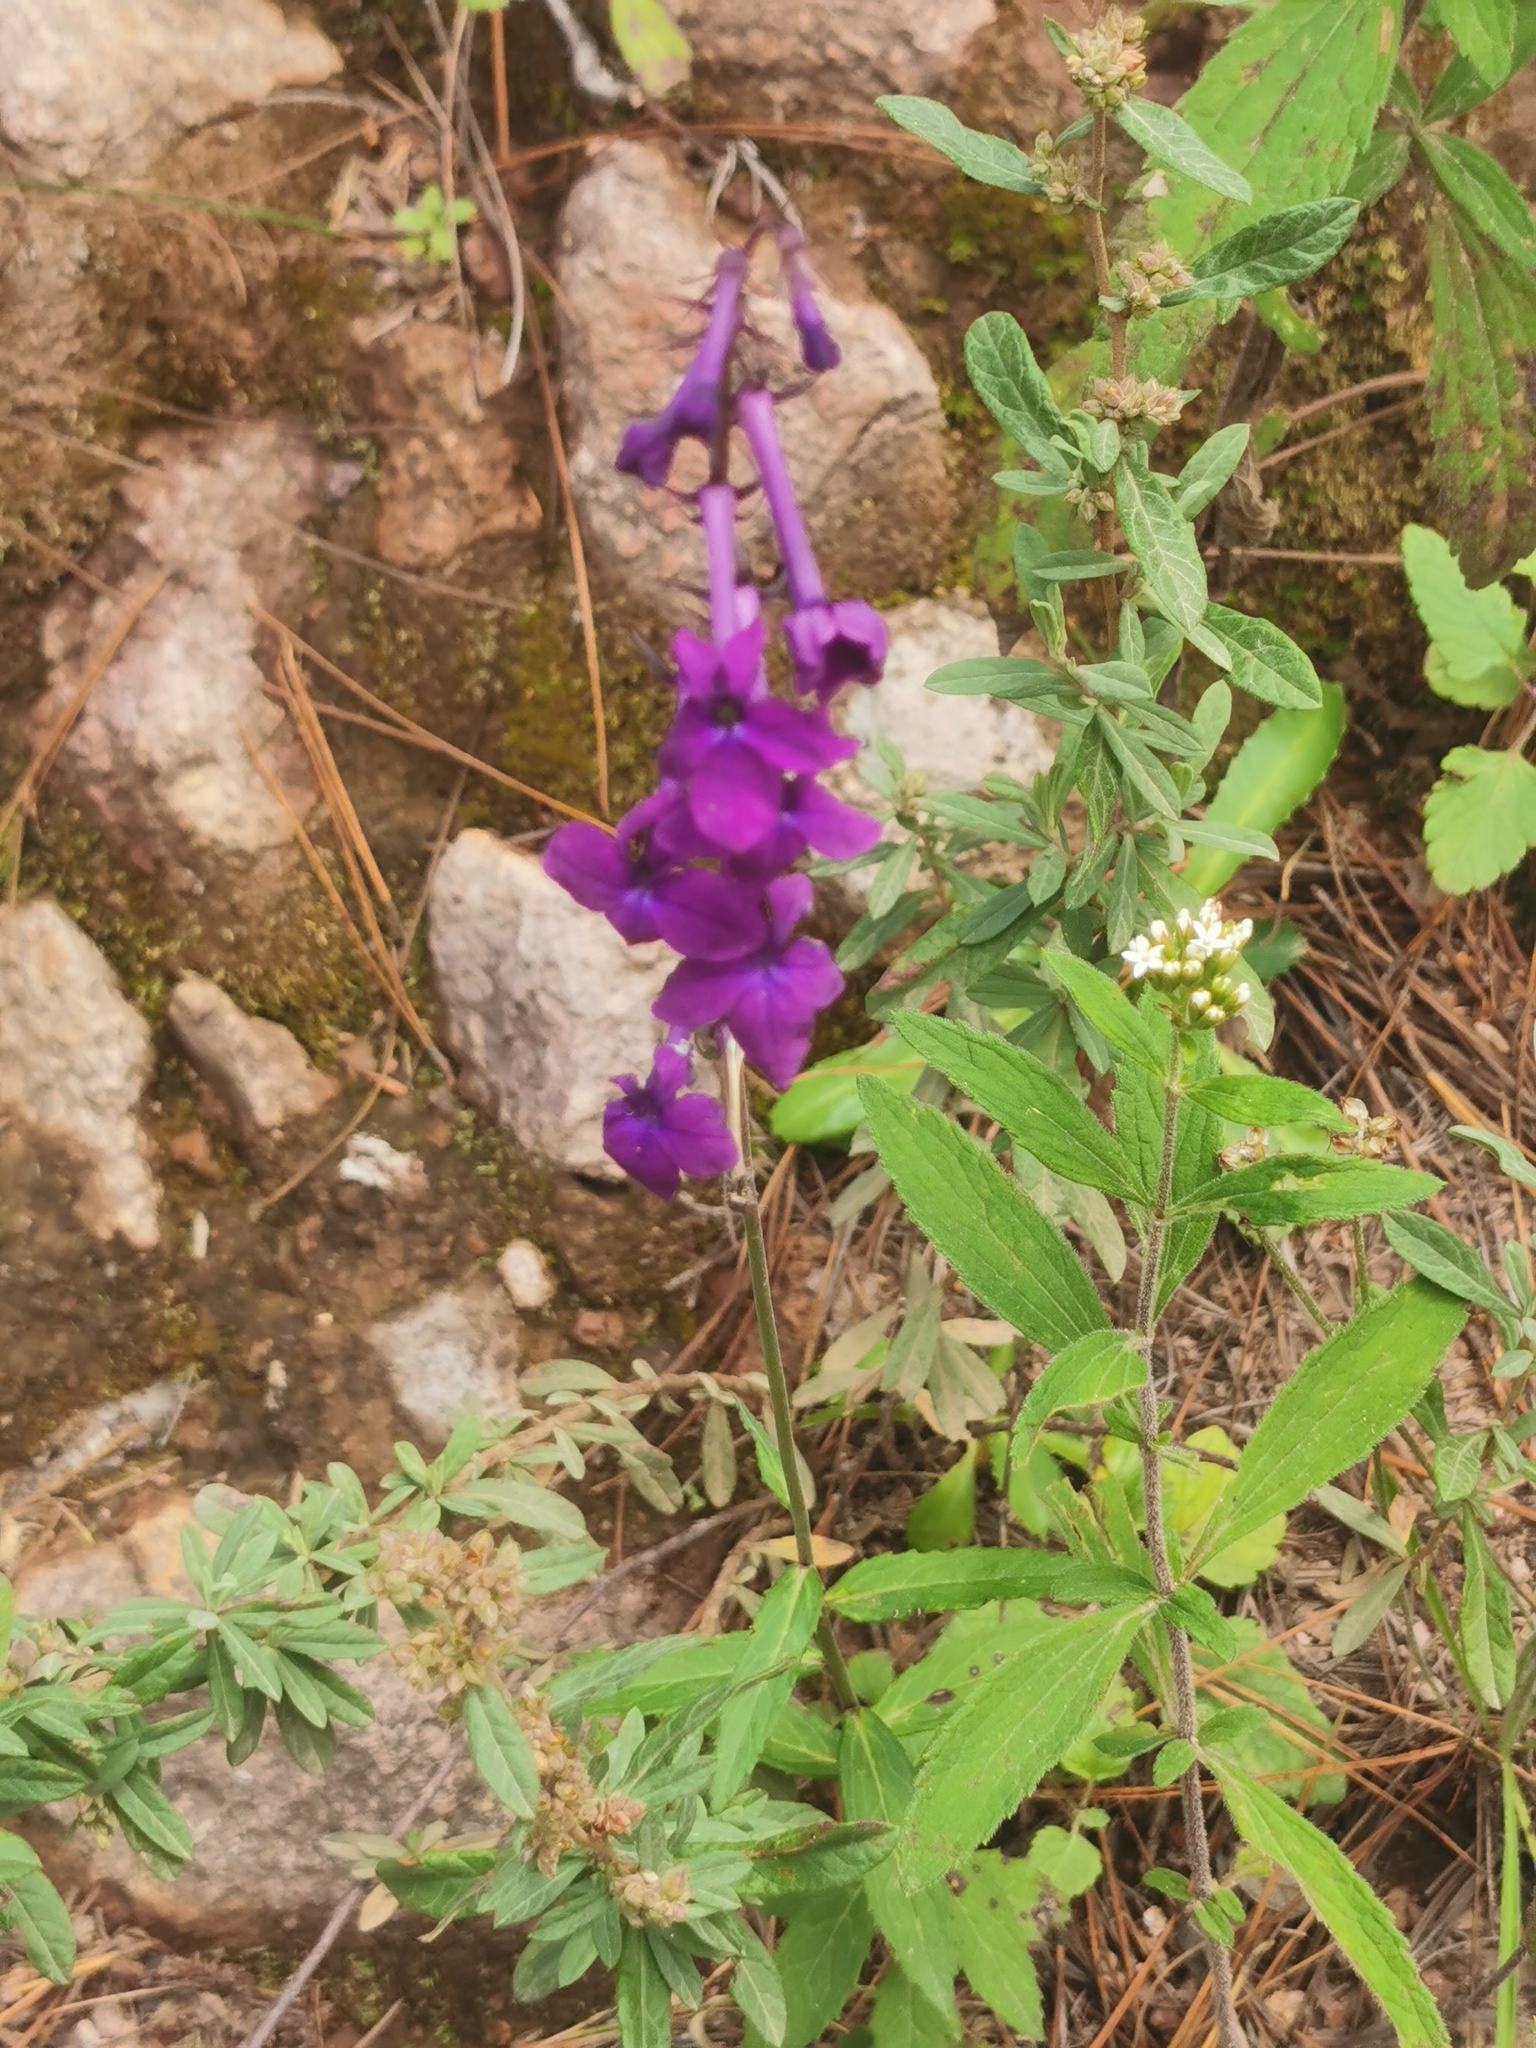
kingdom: Plantae
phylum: Tracheophyta
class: Magnoliopsida
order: Asterales
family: Campanulaceae
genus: Lobelia
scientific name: Lobelia sinaloae
